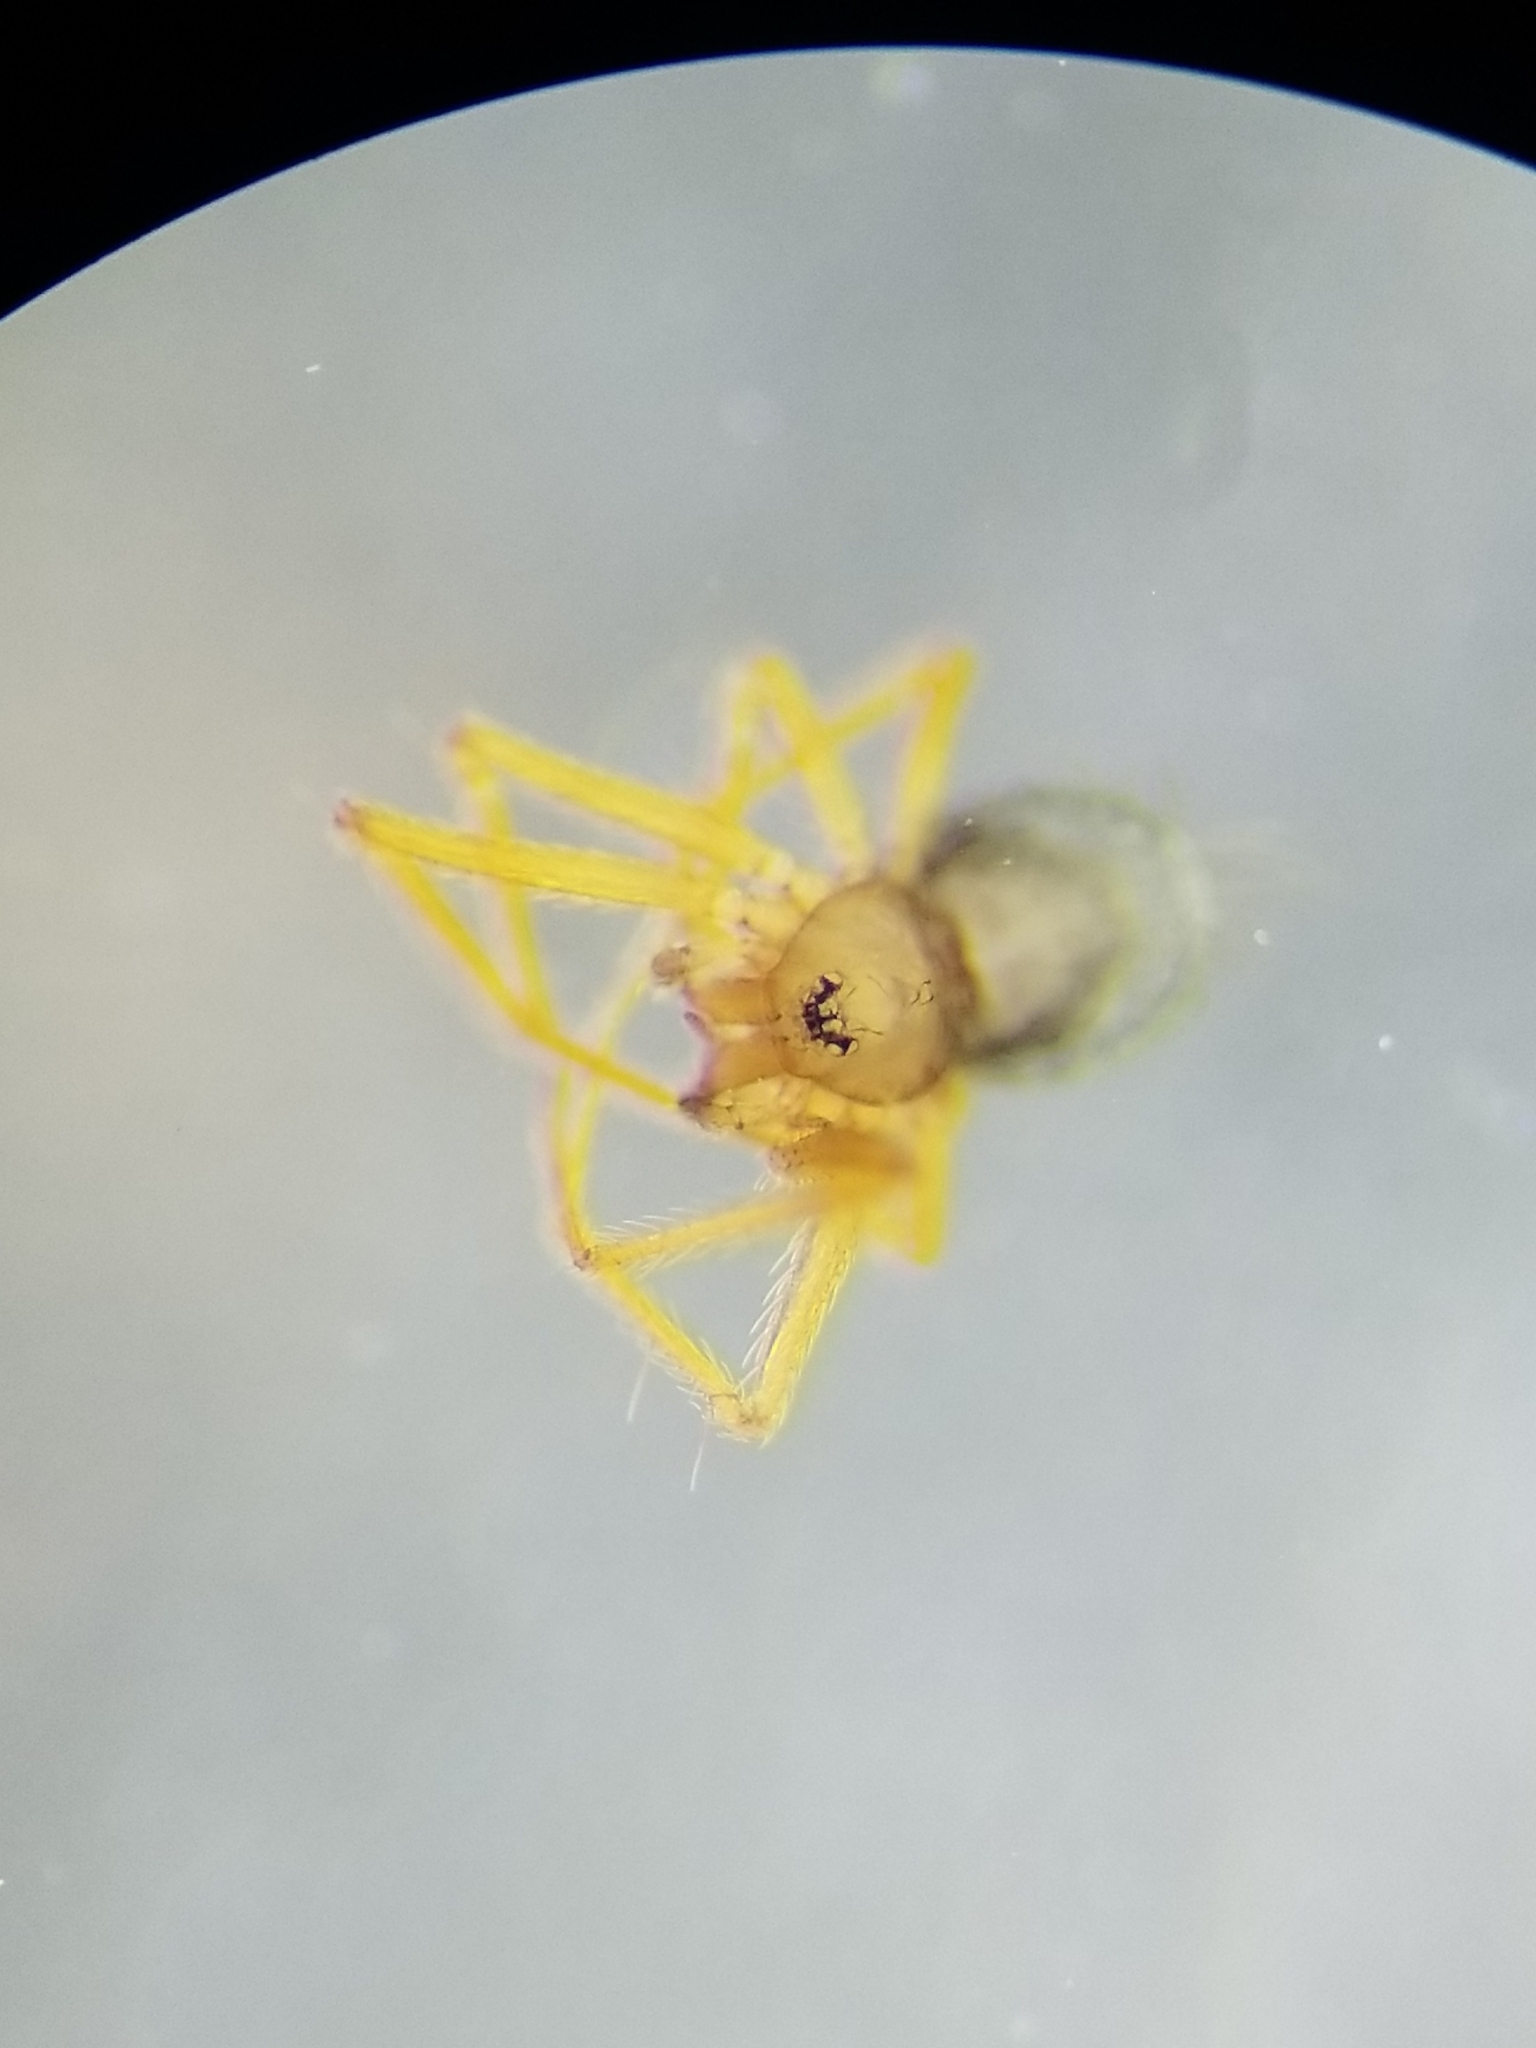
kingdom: Animalia
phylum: Arthropoda
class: Arachnida
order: Araneae
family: Telemidae
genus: Usofila
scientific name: Usofila pacifica
